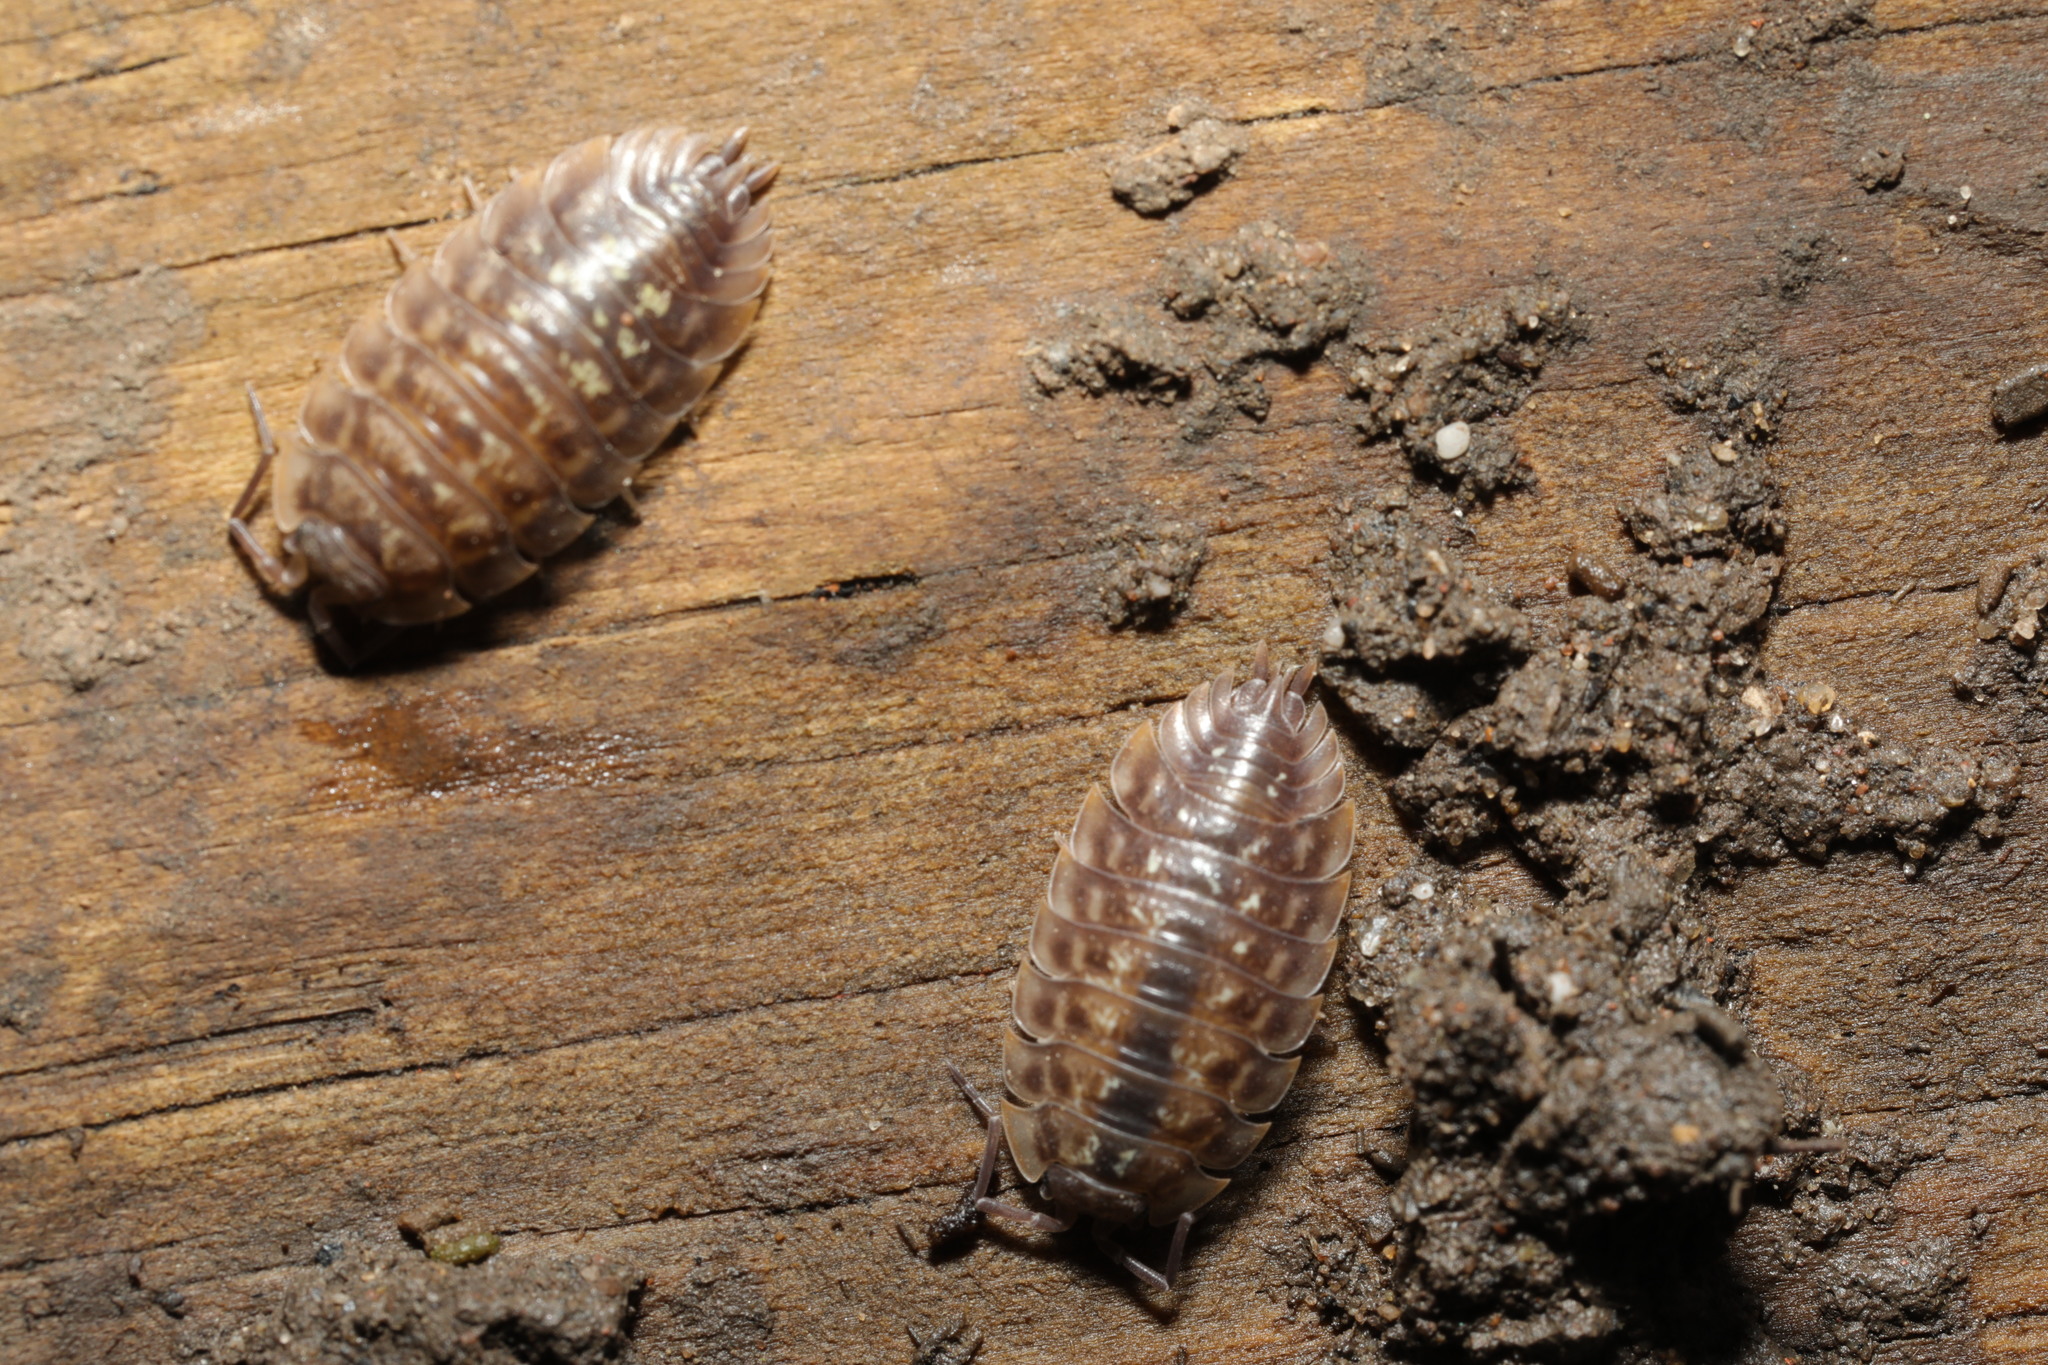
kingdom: Animalia
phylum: Arthropoda
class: Malacostraca
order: Isopoda
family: Oniscidae
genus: Oniscus
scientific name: Oniscus asellus
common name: Common shiny woodlouse
